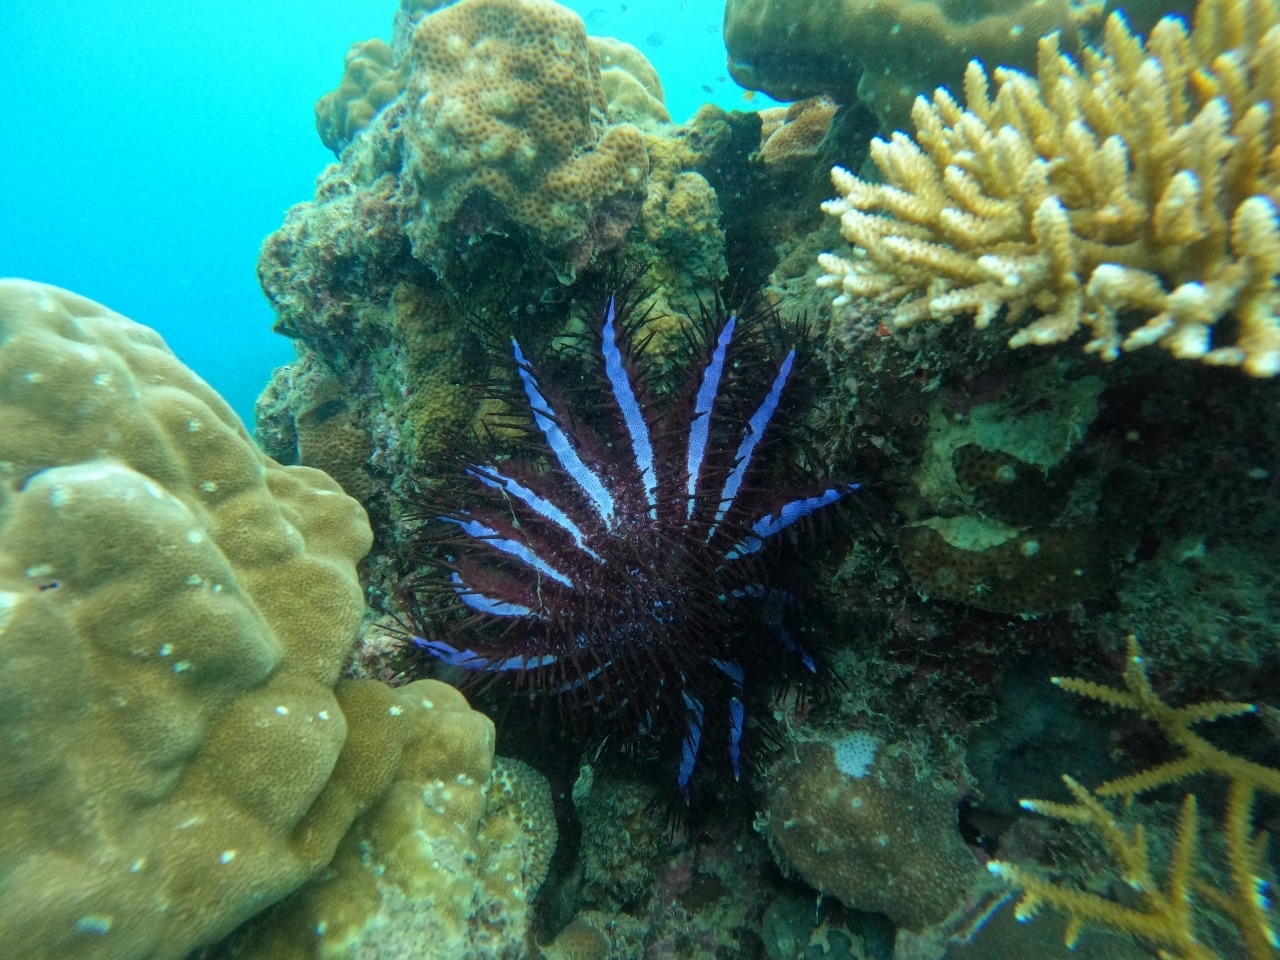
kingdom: Animalia
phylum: Echinodermata
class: Asteroidea
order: Valvatida
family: Acanthasteridae
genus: Acanthaster
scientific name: Acanthaster planci
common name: Crown-of-thorns
